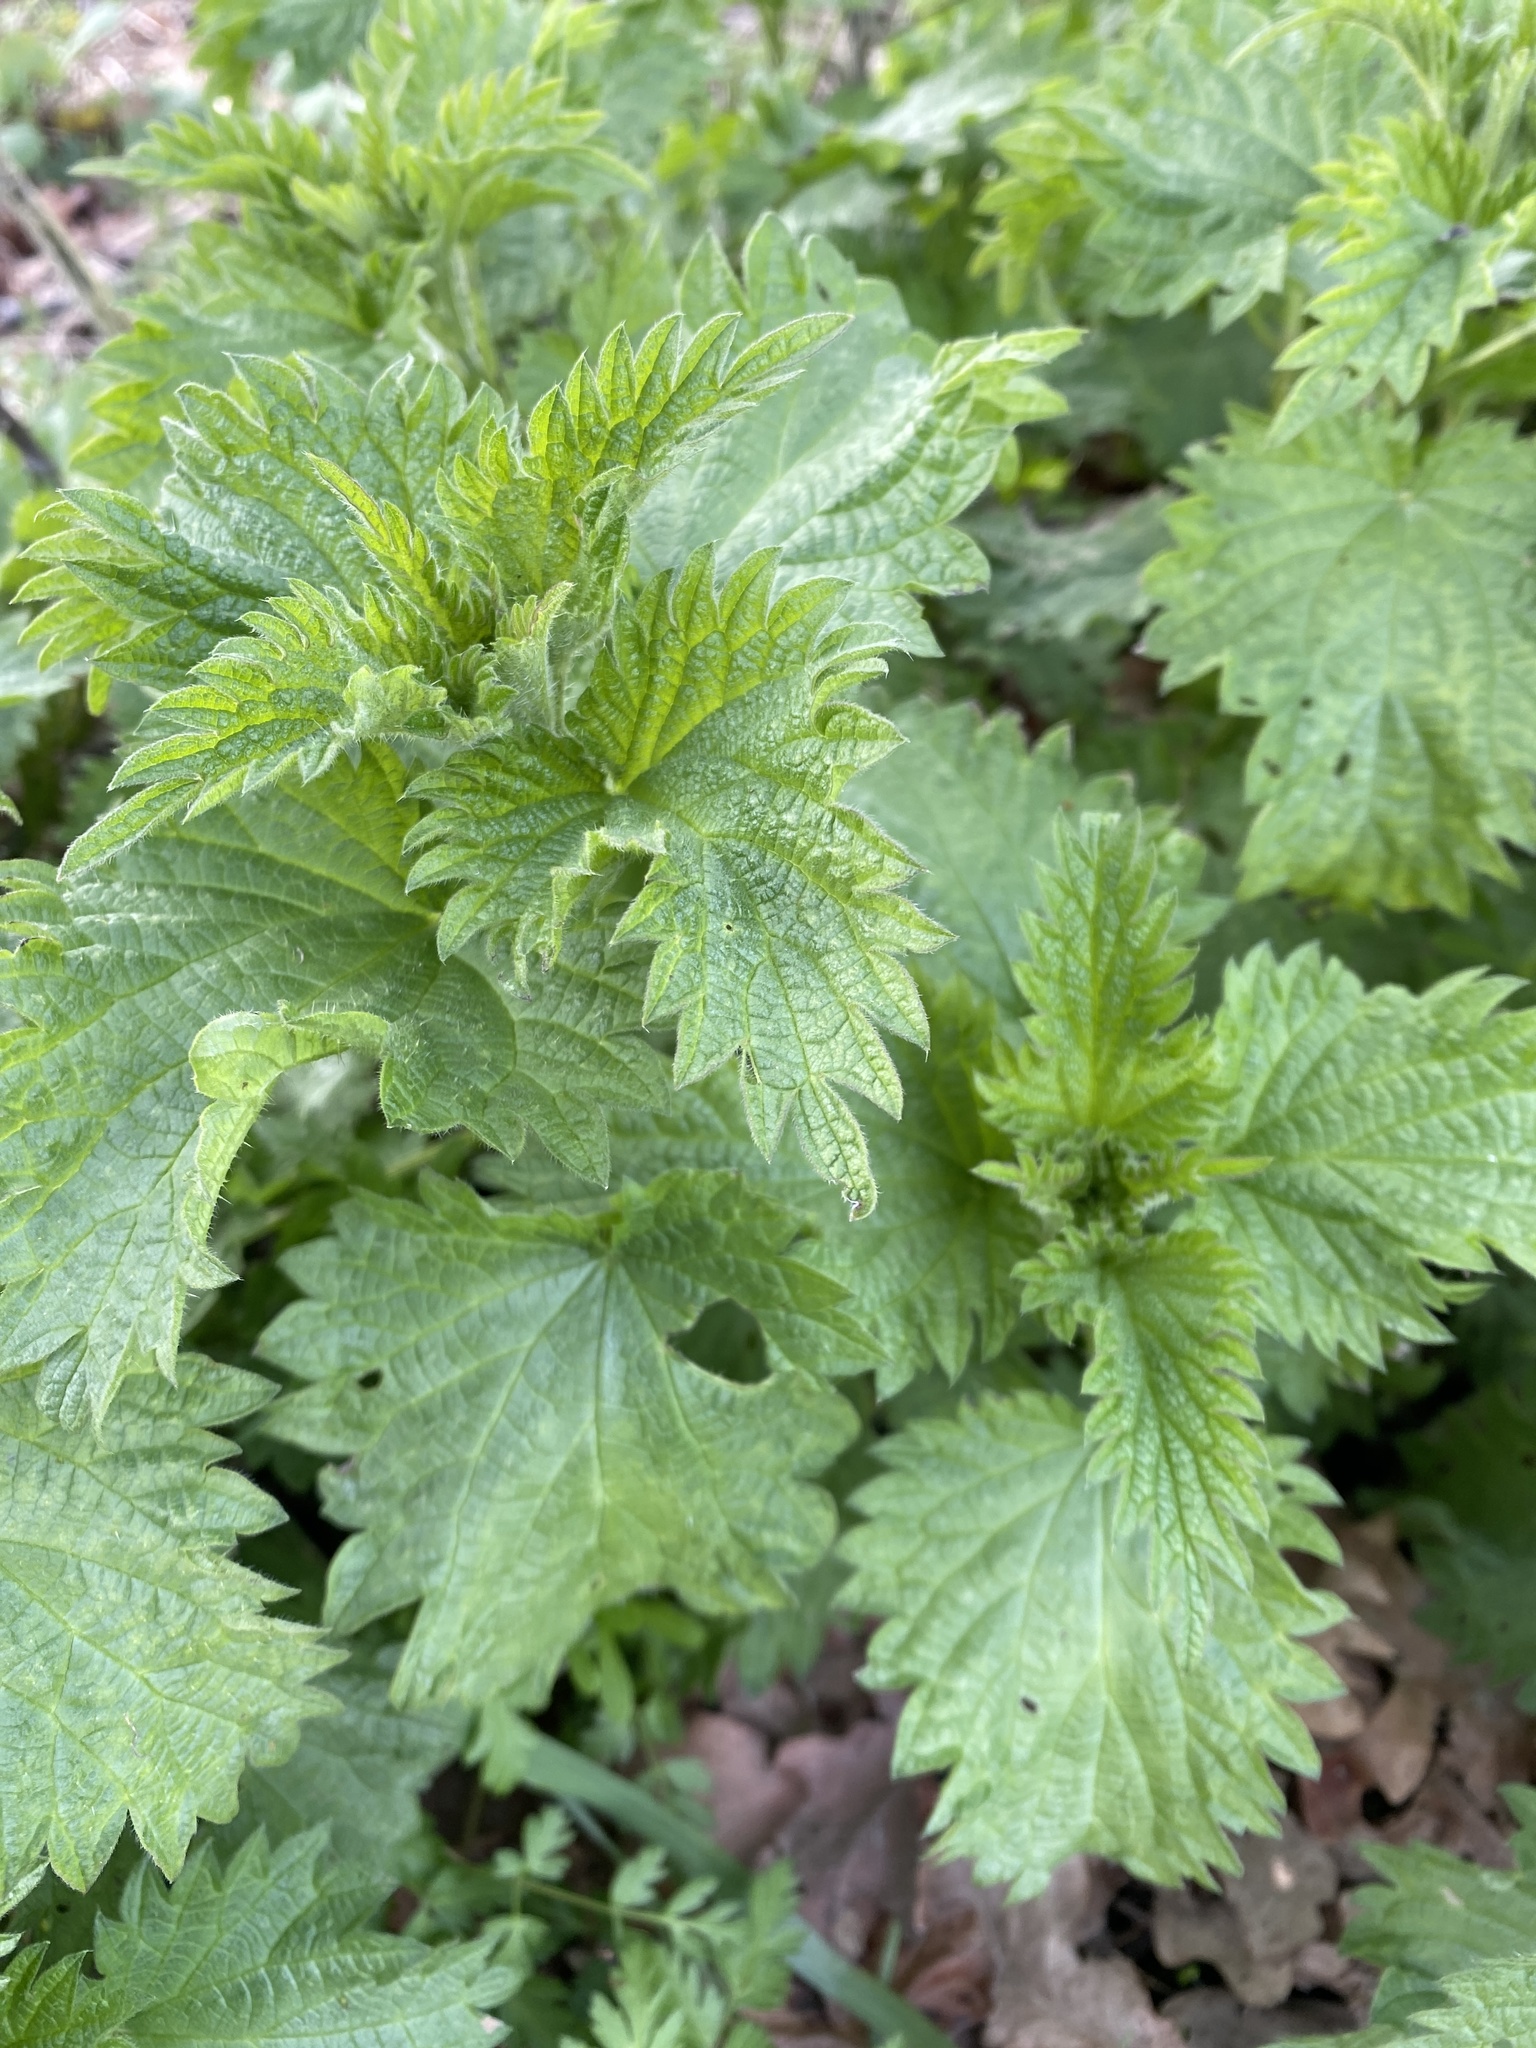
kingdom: Plantae
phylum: Tracheophyta
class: Magnoliopsida
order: Rosales
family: Urticaceae
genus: Urtica
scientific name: Urtica dioica
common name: Common nettle
